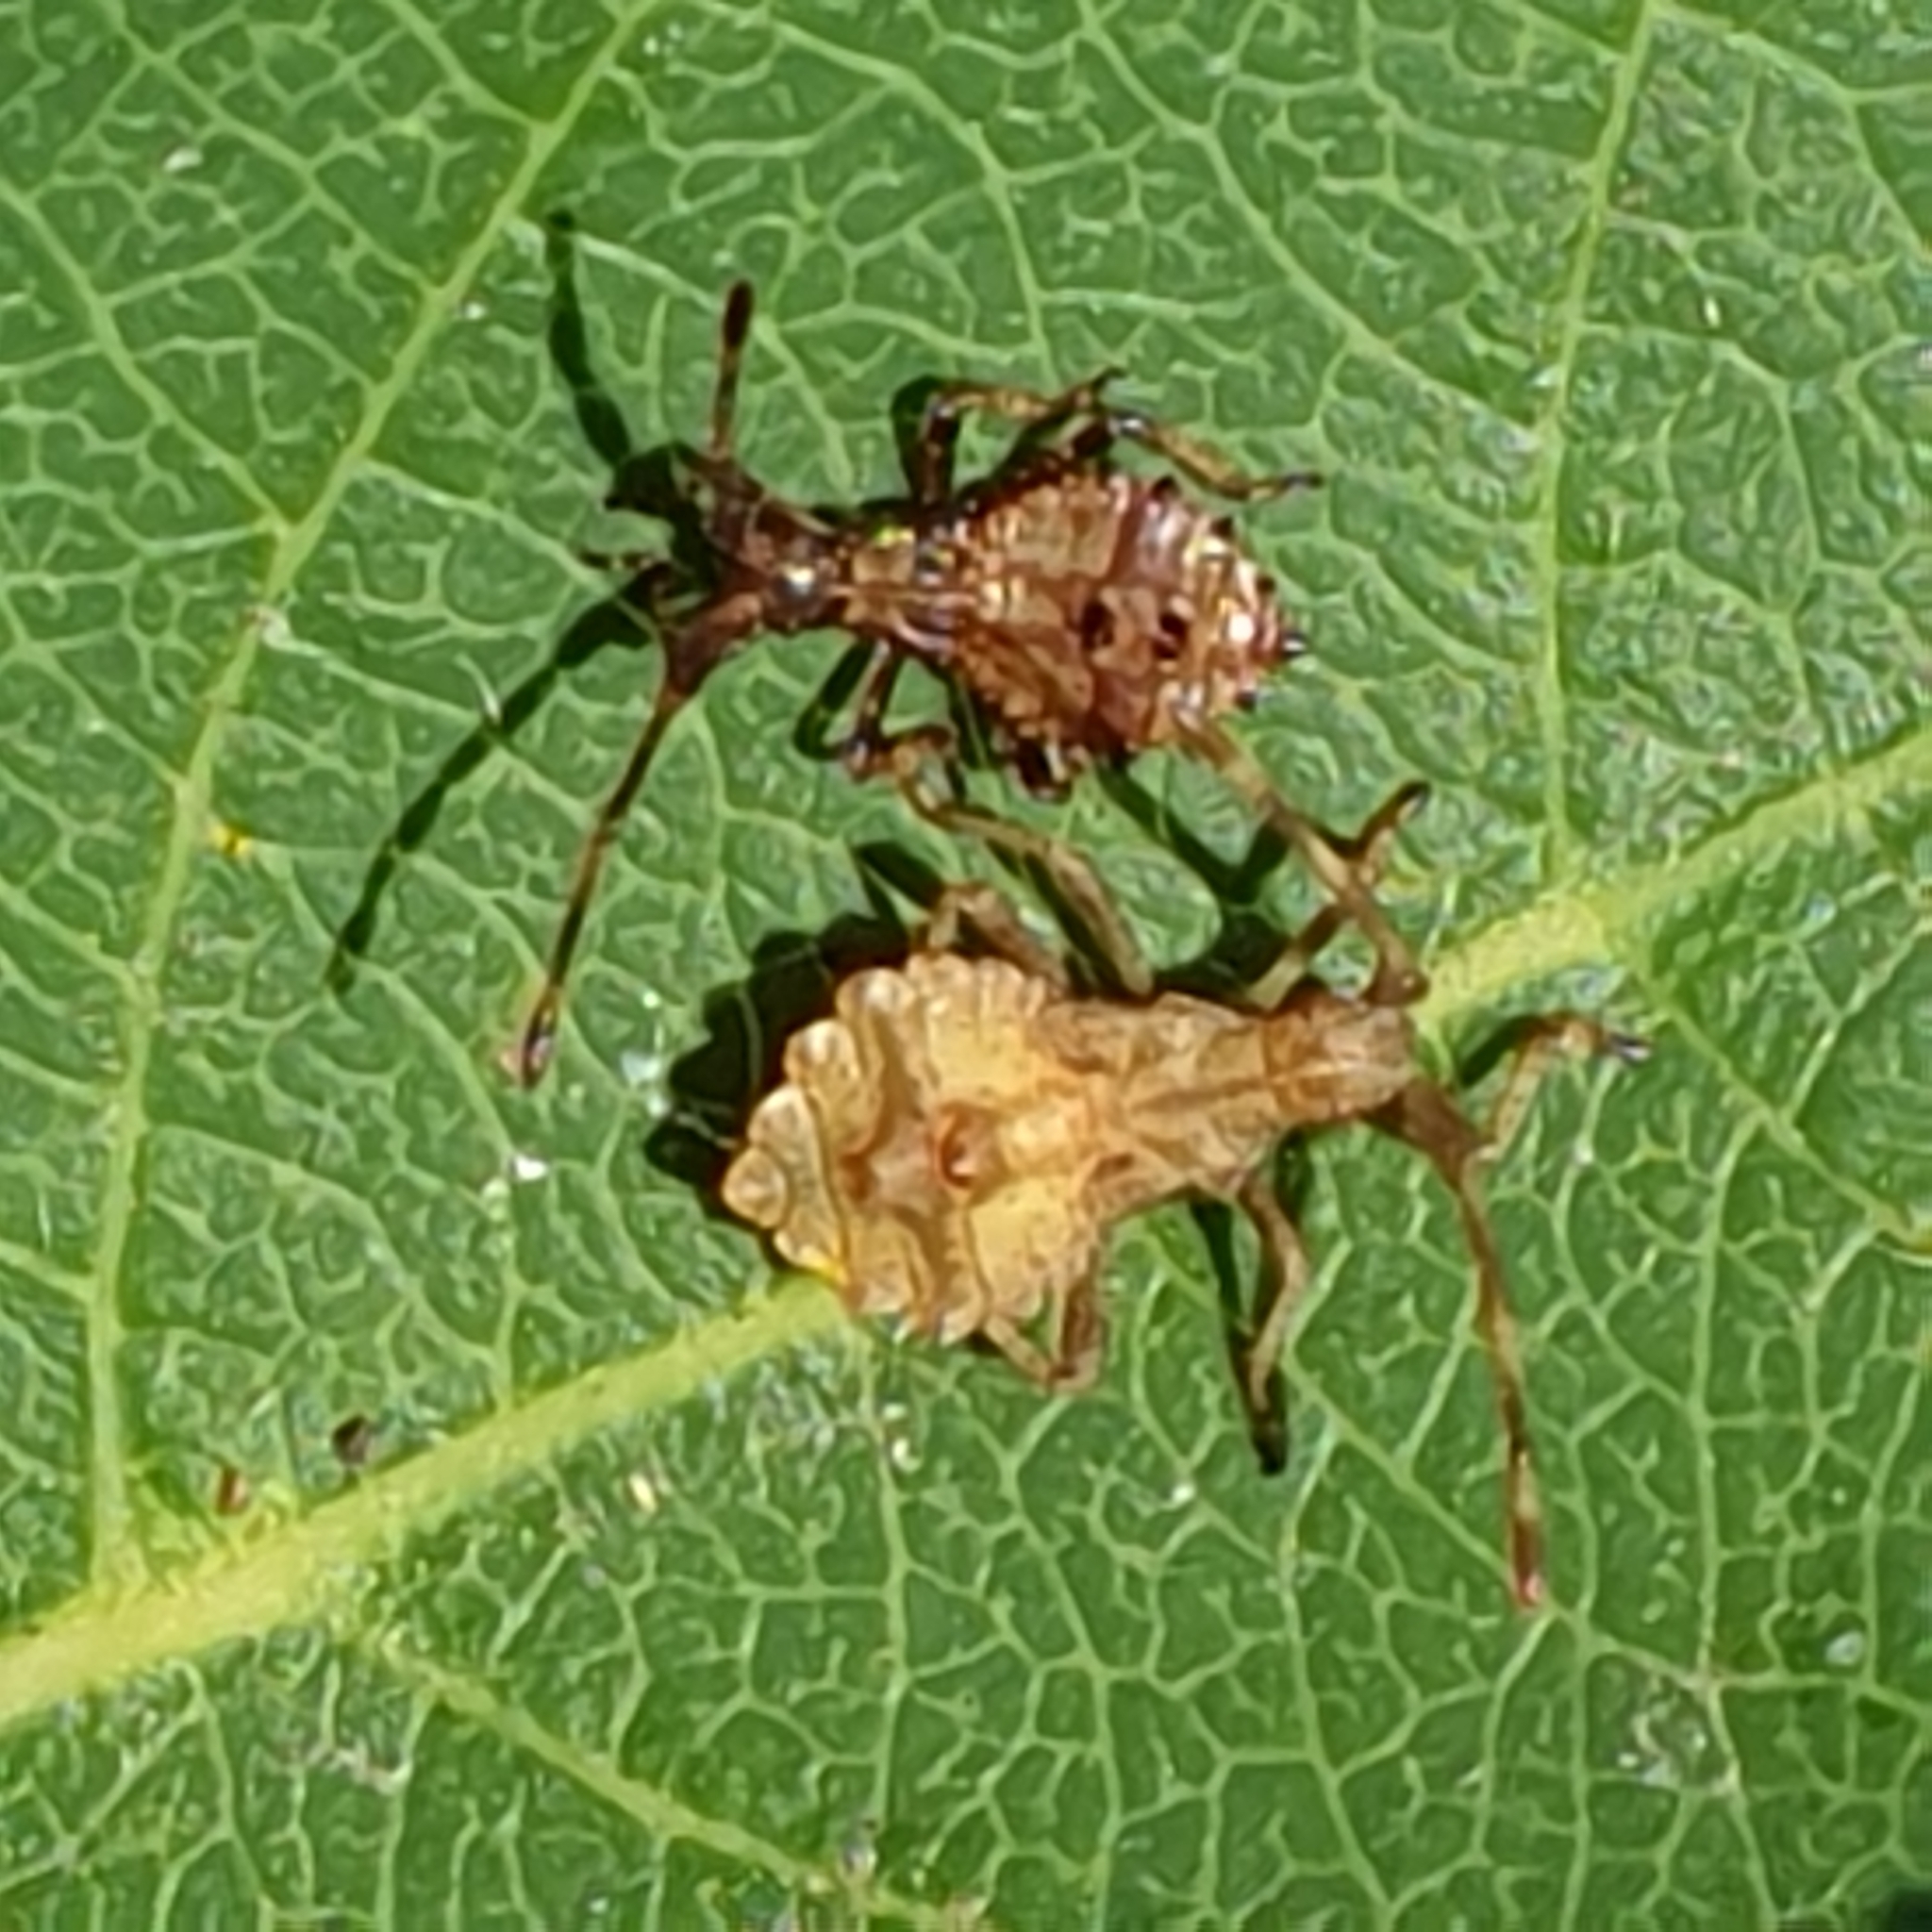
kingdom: Animalia
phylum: Arthropoda
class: Insecta
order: Hemiptera
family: Coreidae
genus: Coreus
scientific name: Coreus marginatus
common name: Dock bug
